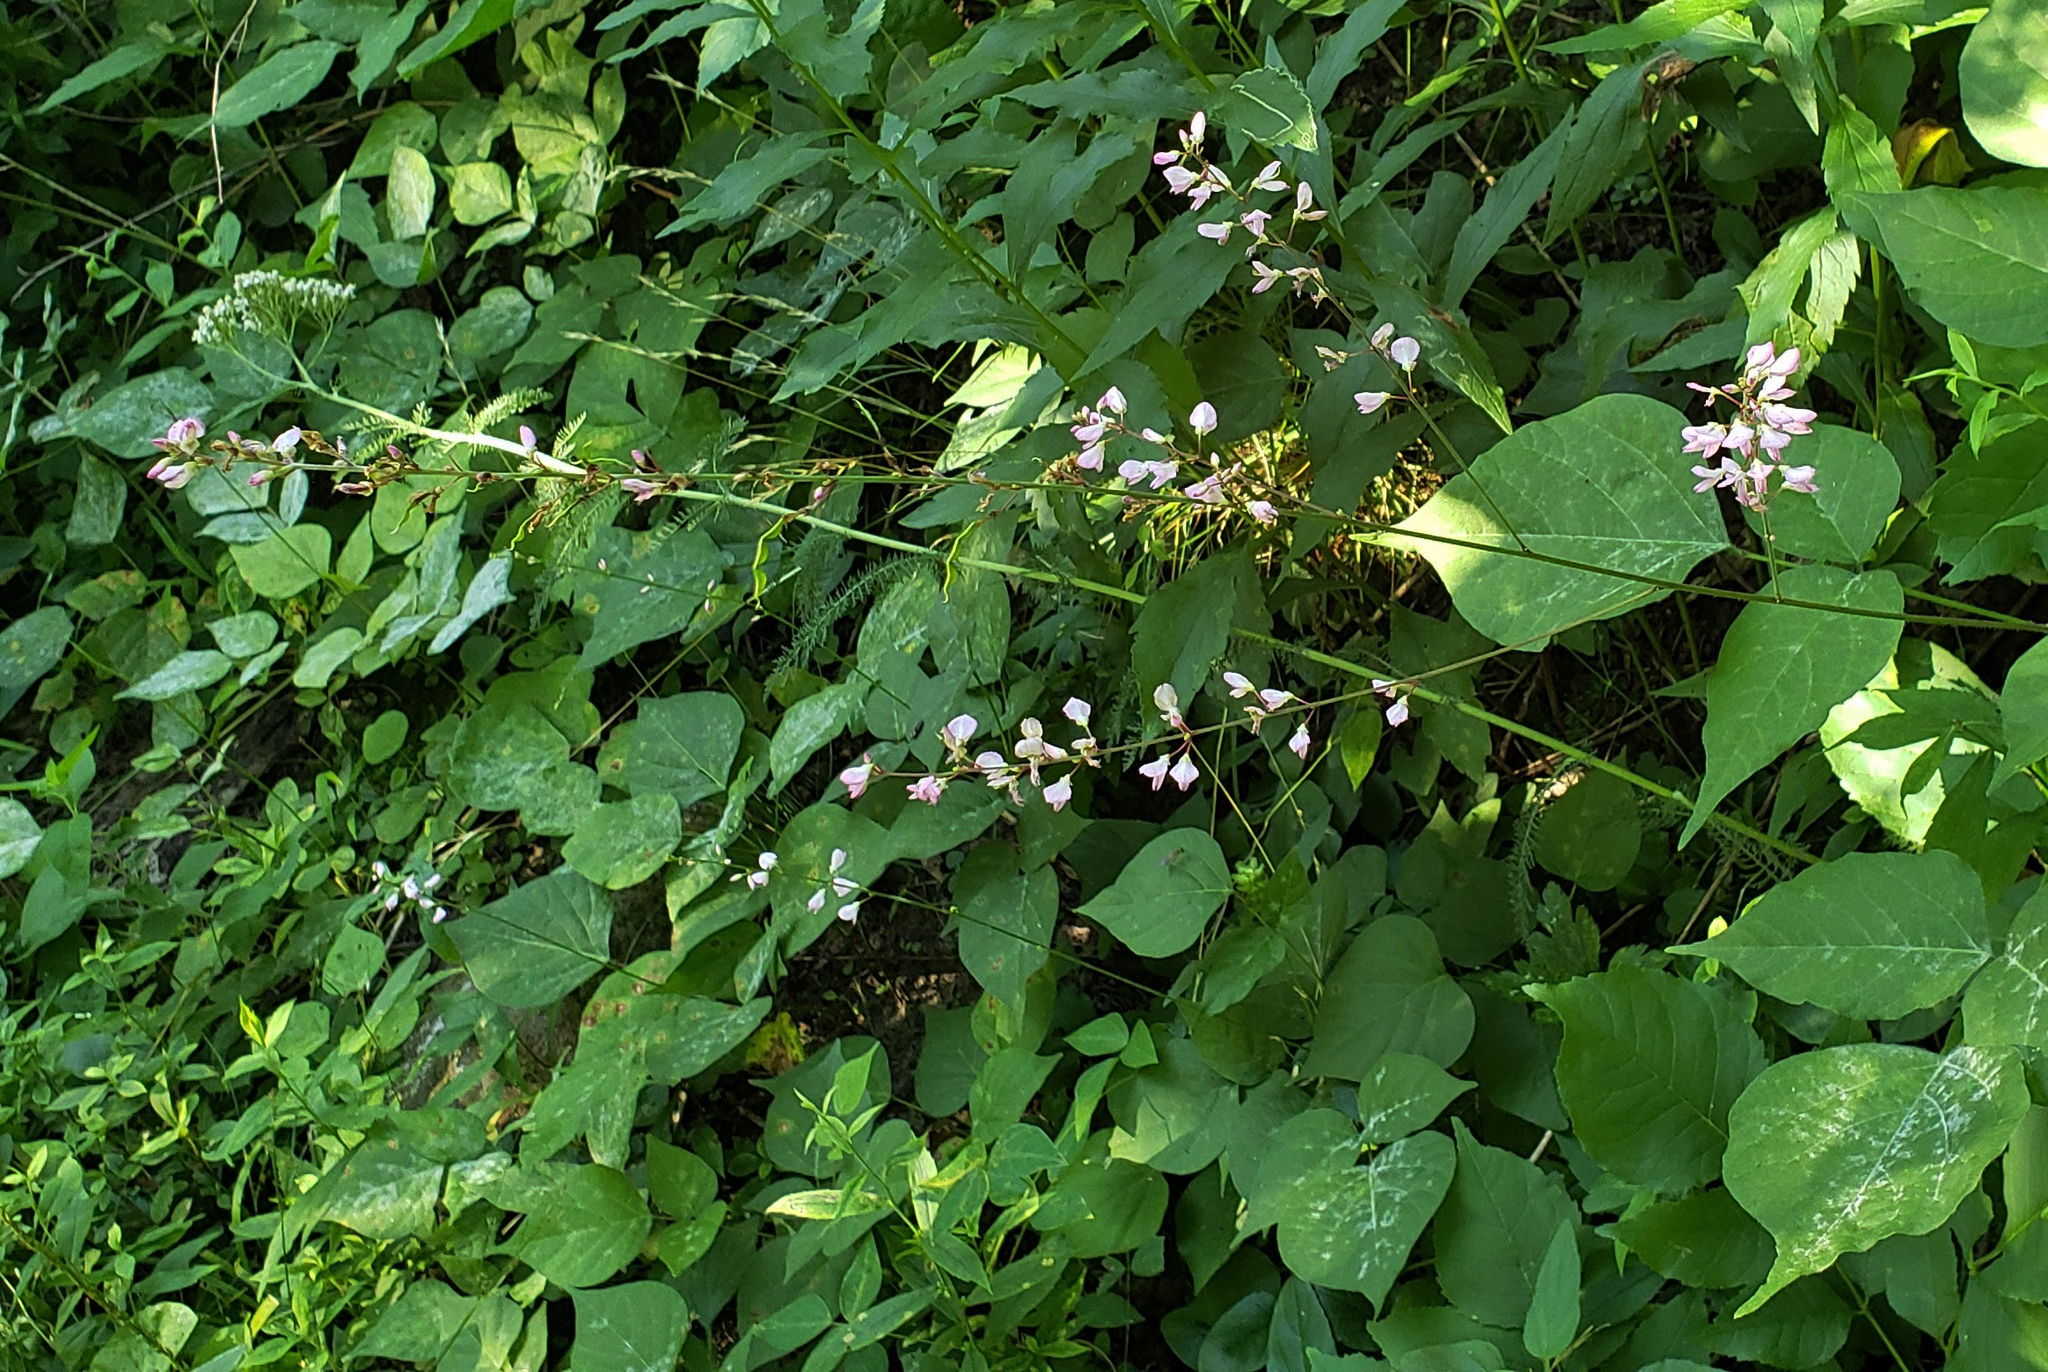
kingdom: Plantae
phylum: Tracheophyta
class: Magnoliopsida
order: Fabales
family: Fabaceae
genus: Hylodesmum
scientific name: Hylodesmum glutinosum
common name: Clustered-leaved tick-trefoil
